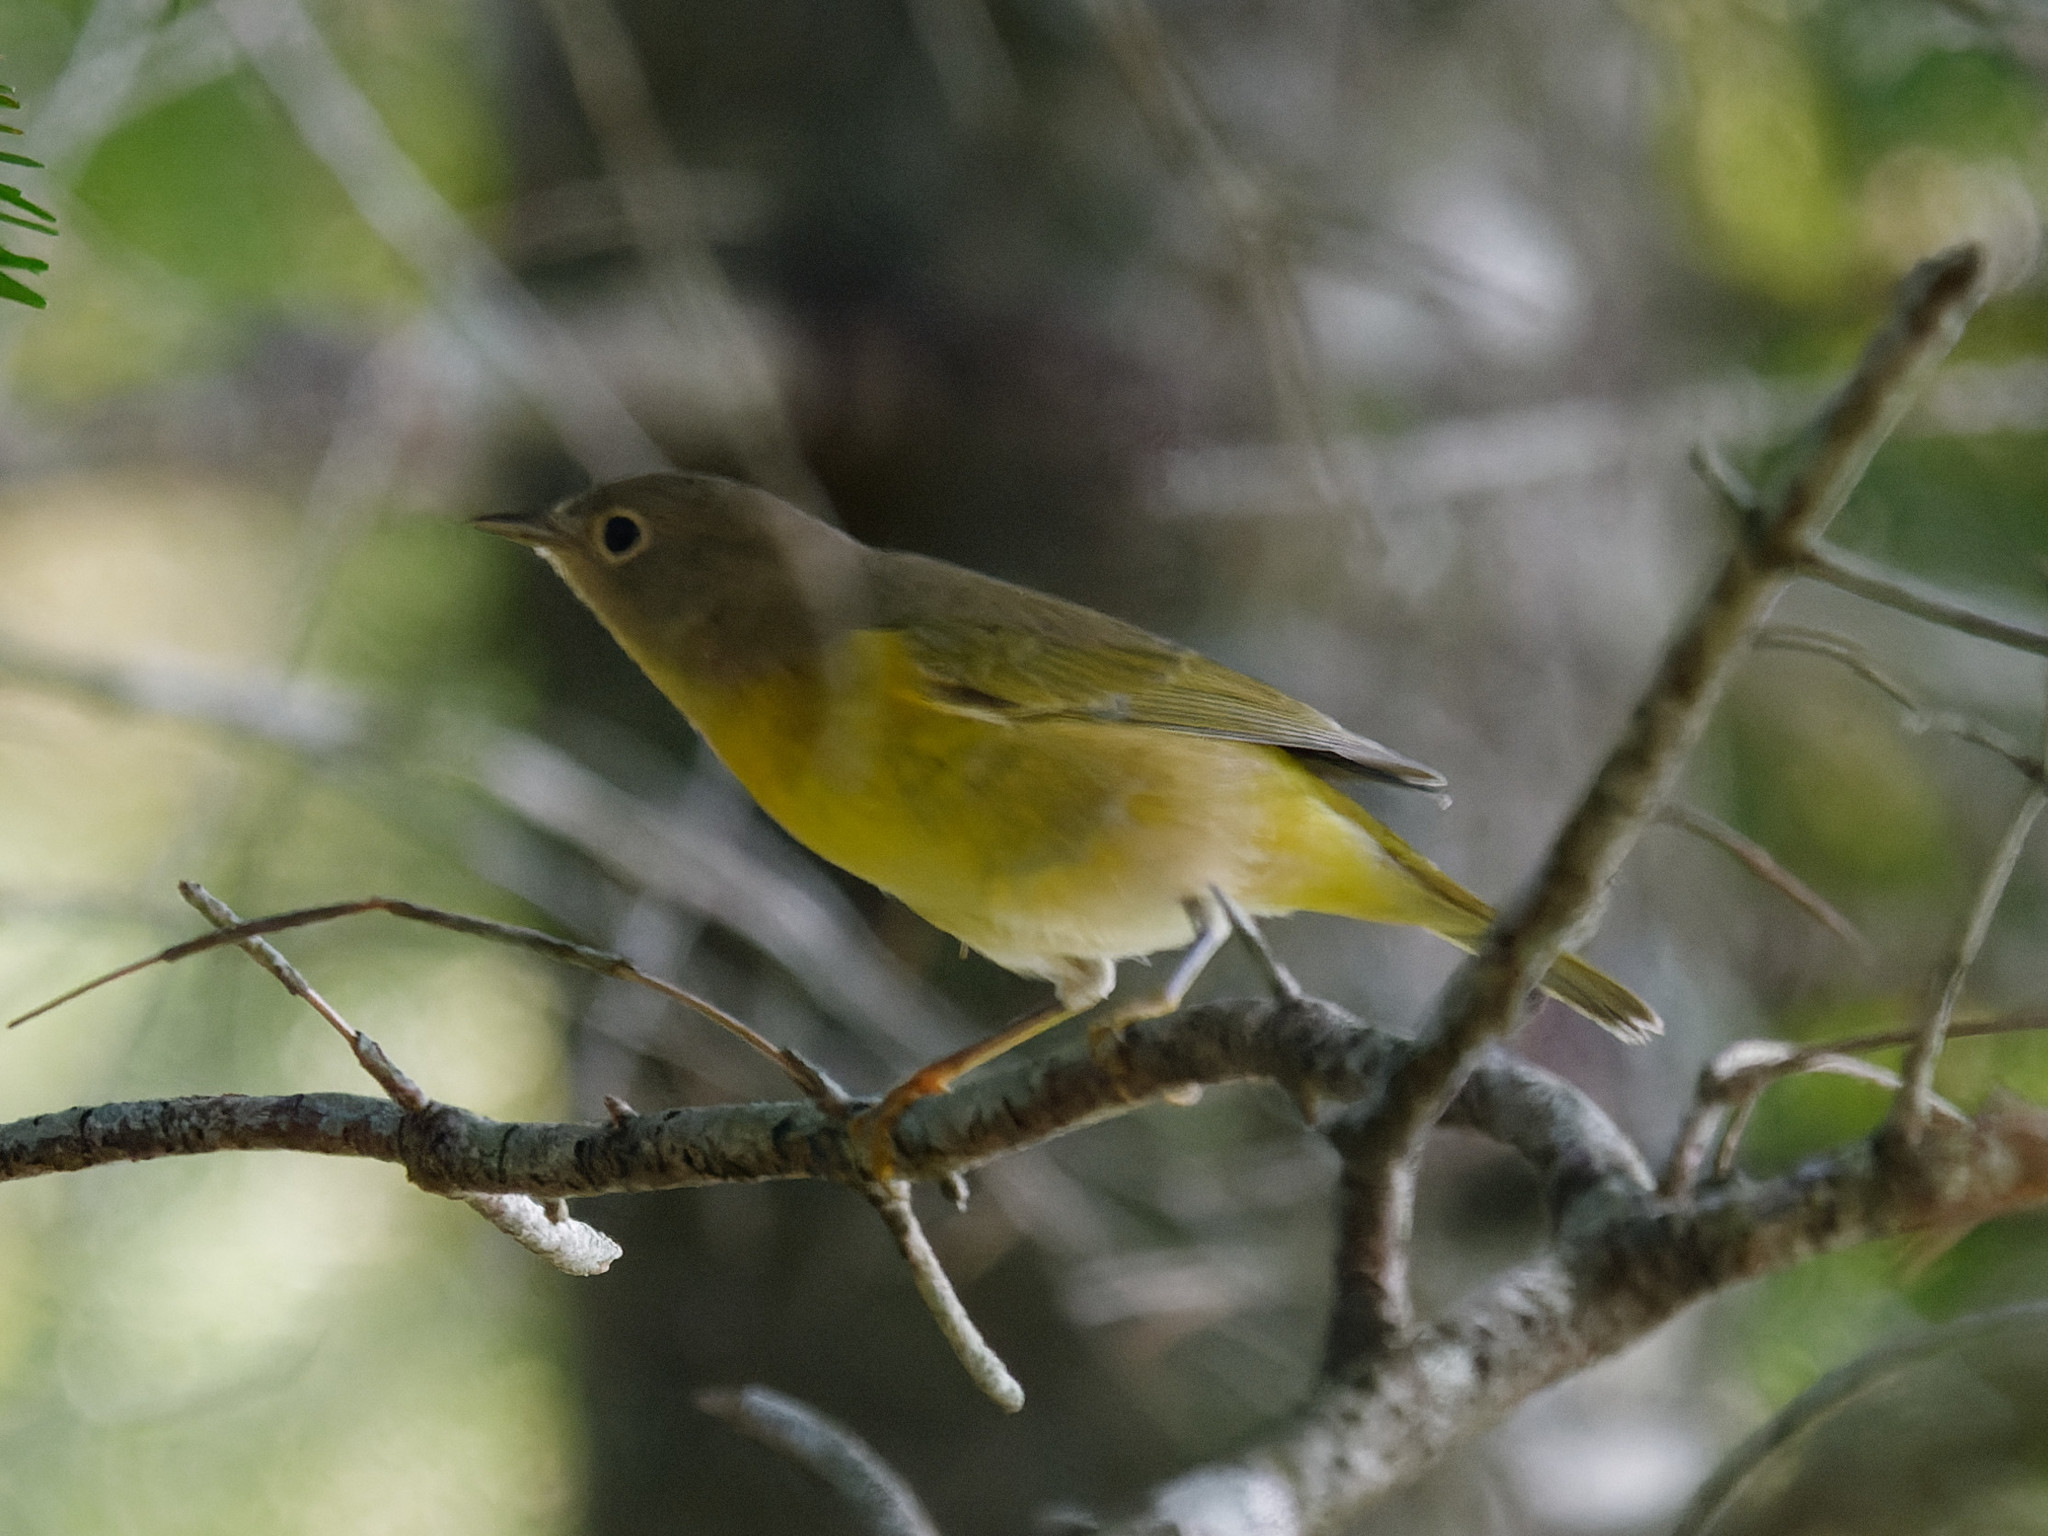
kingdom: Animalia
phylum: Chordata
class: Aves
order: Passeriformes
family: Parulidae
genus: Leiothlypis
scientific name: Leiothlypis ruficapilla
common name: Nashville warbler
